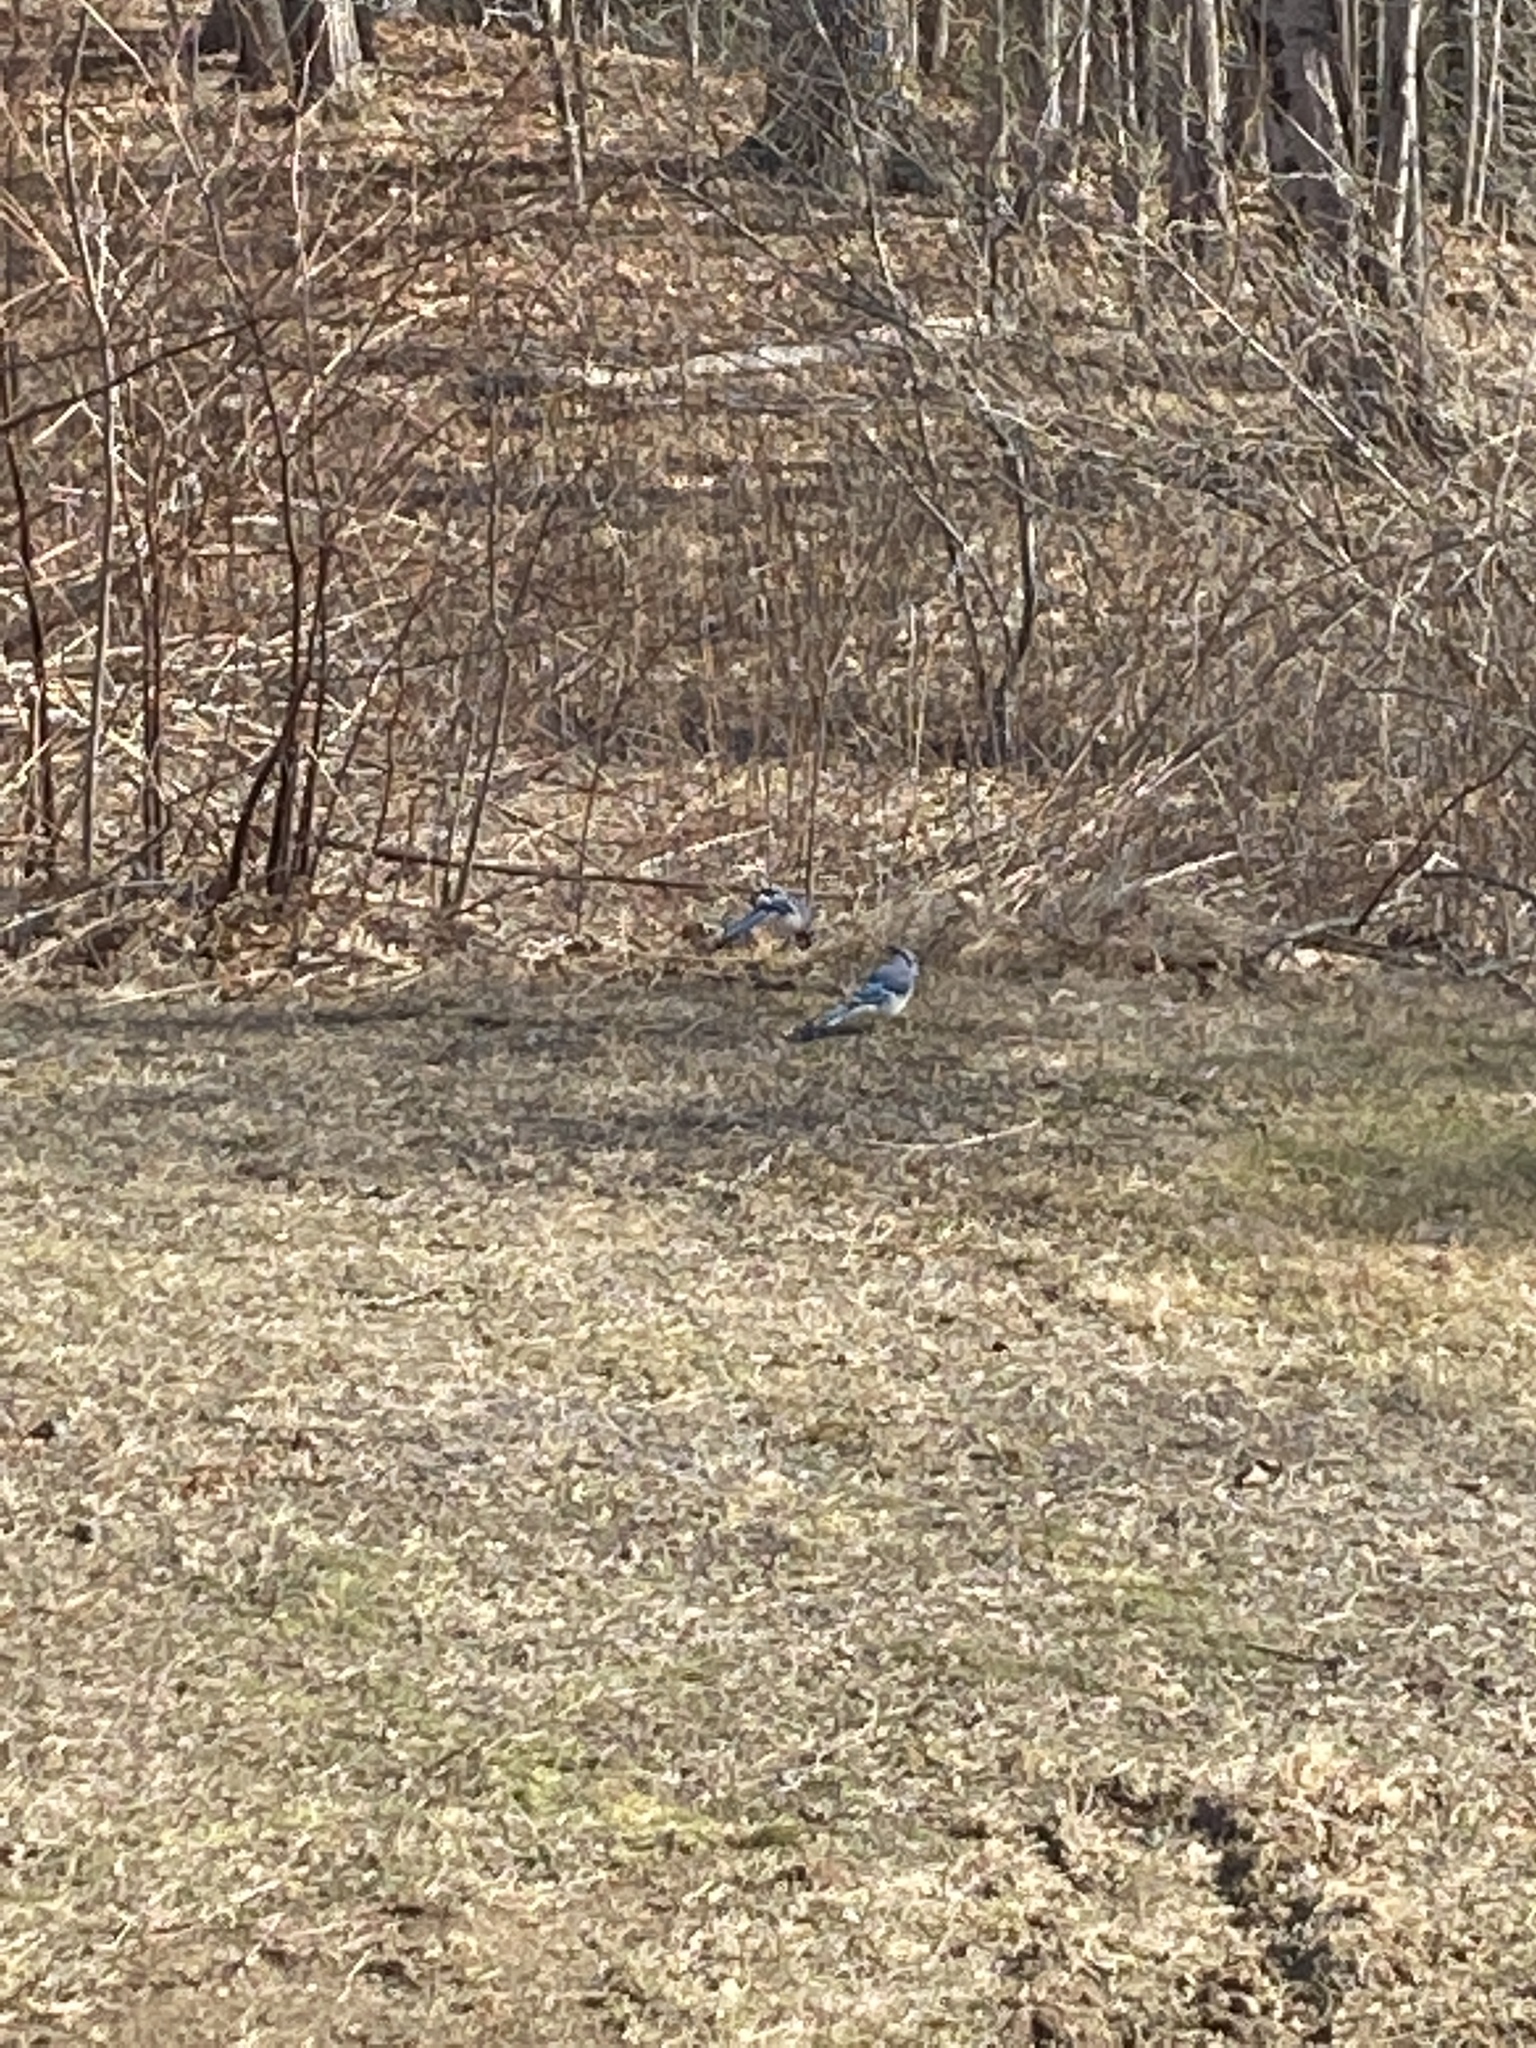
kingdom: Animalia
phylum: Chordata
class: Aves
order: Passeriformes
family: Corvidae
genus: Cyanocitta
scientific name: Cyanocitta cristata
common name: Blue jay
